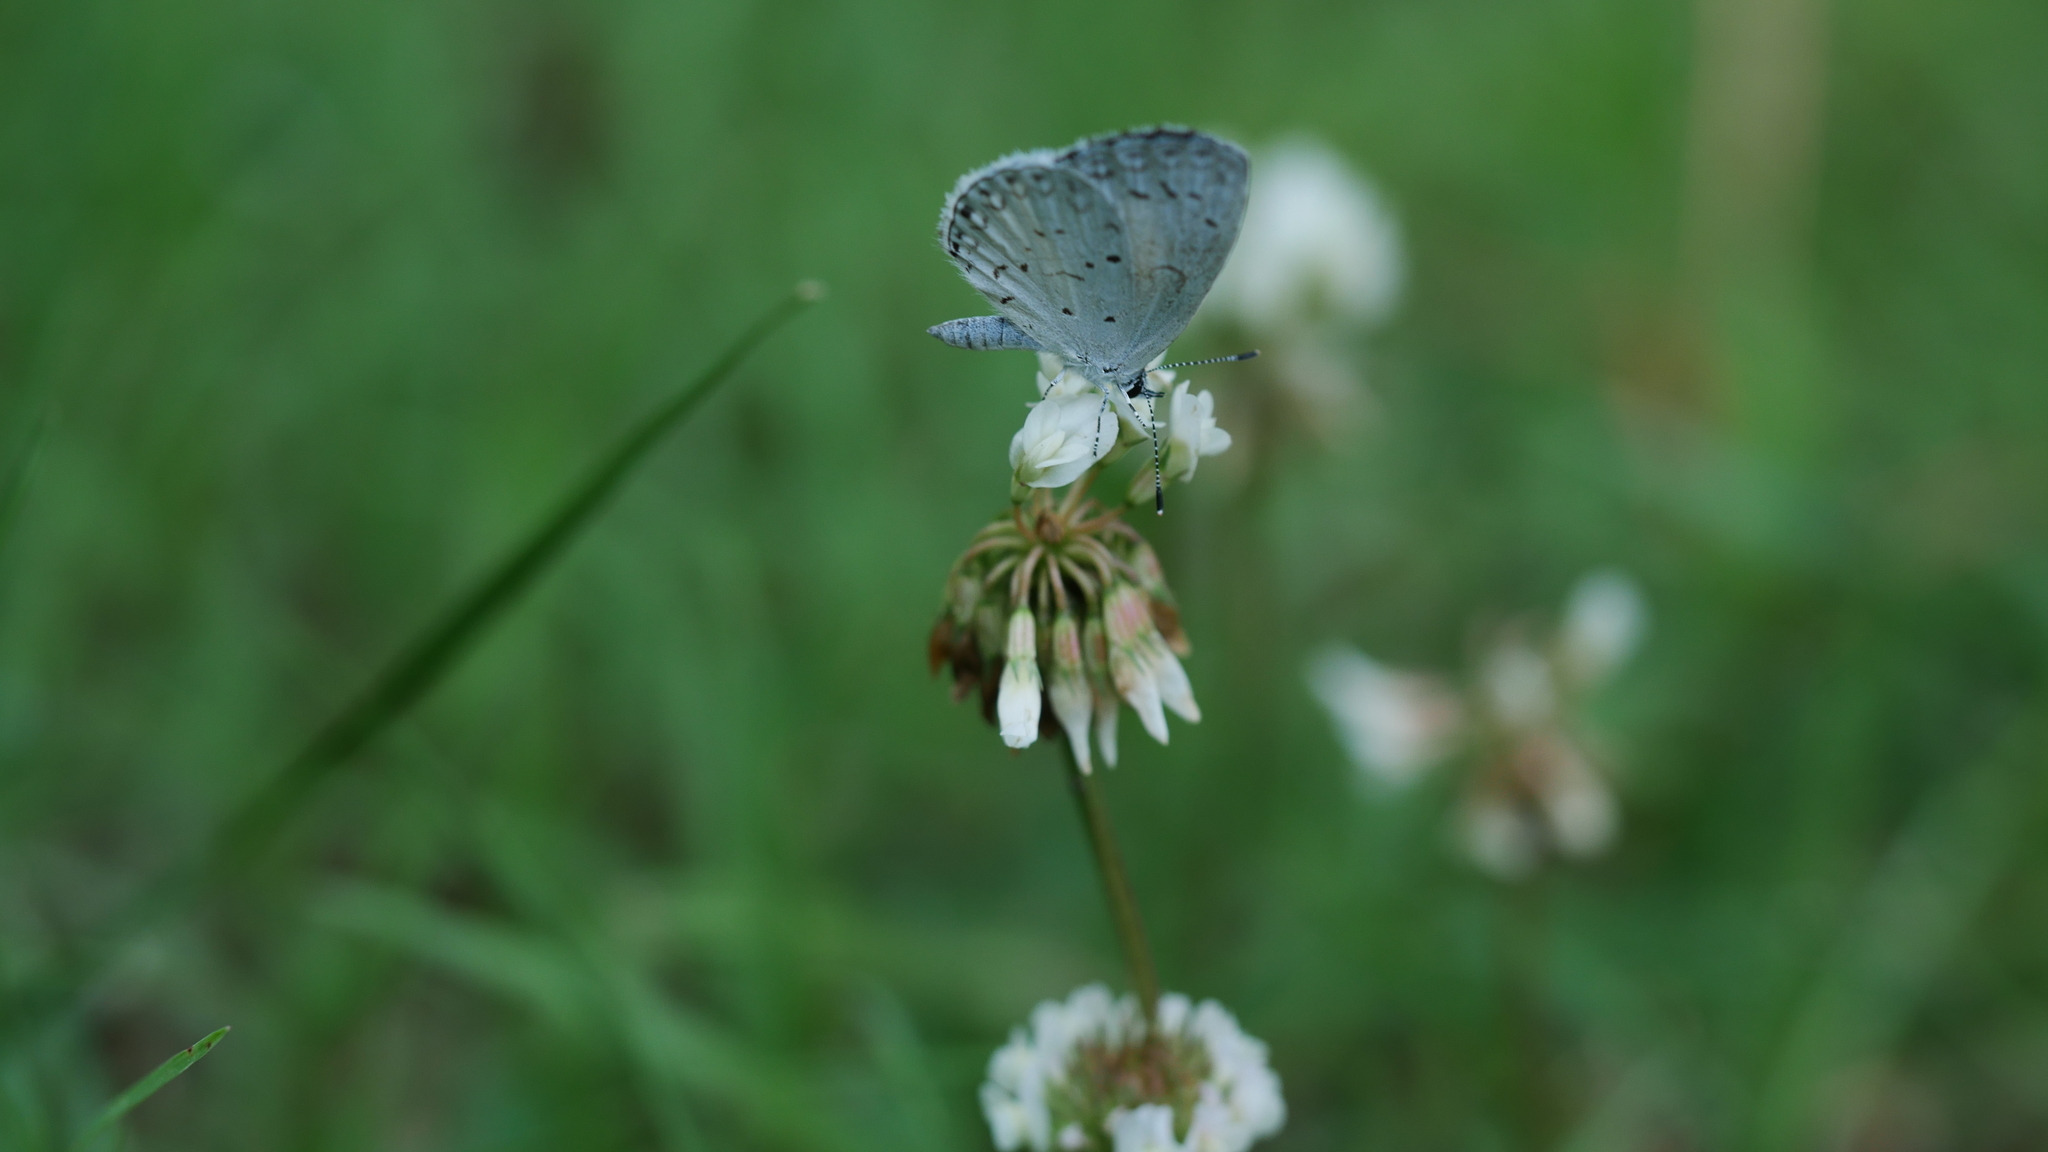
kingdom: Animalia
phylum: Arthropoda
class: Insecta
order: Lepidoptera
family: Lycaenidae
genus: Cyaniris
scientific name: Cyaniris neglecta
